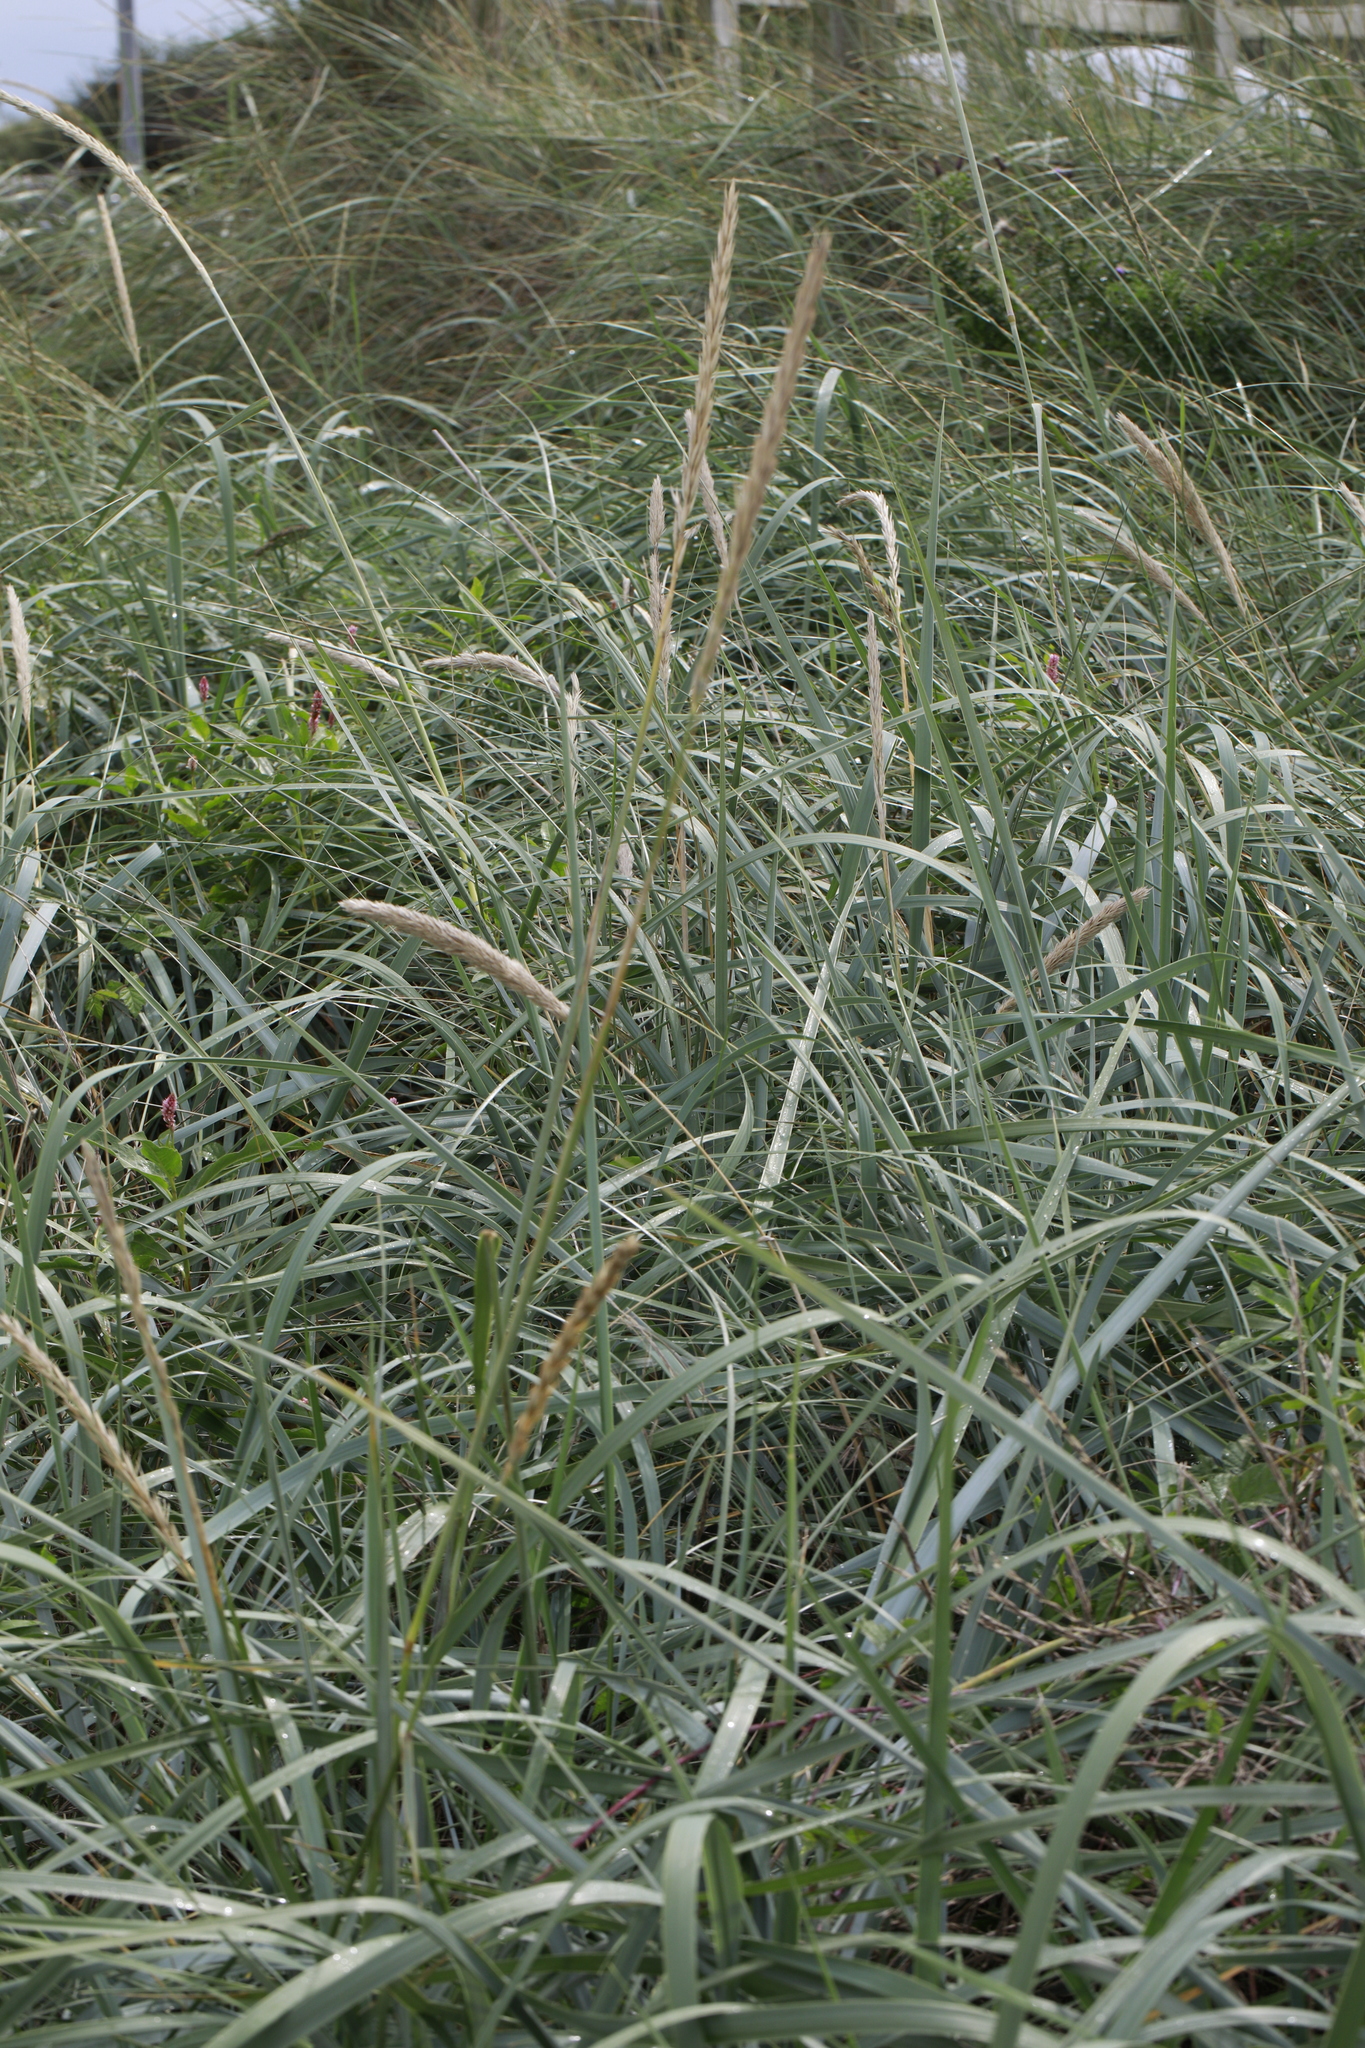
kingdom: Plantae
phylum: Tracheophyta
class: Liliopsida
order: Poales
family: Poaceae
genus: Leymus
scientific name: Leymus arenarius
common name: Lyme-grass
